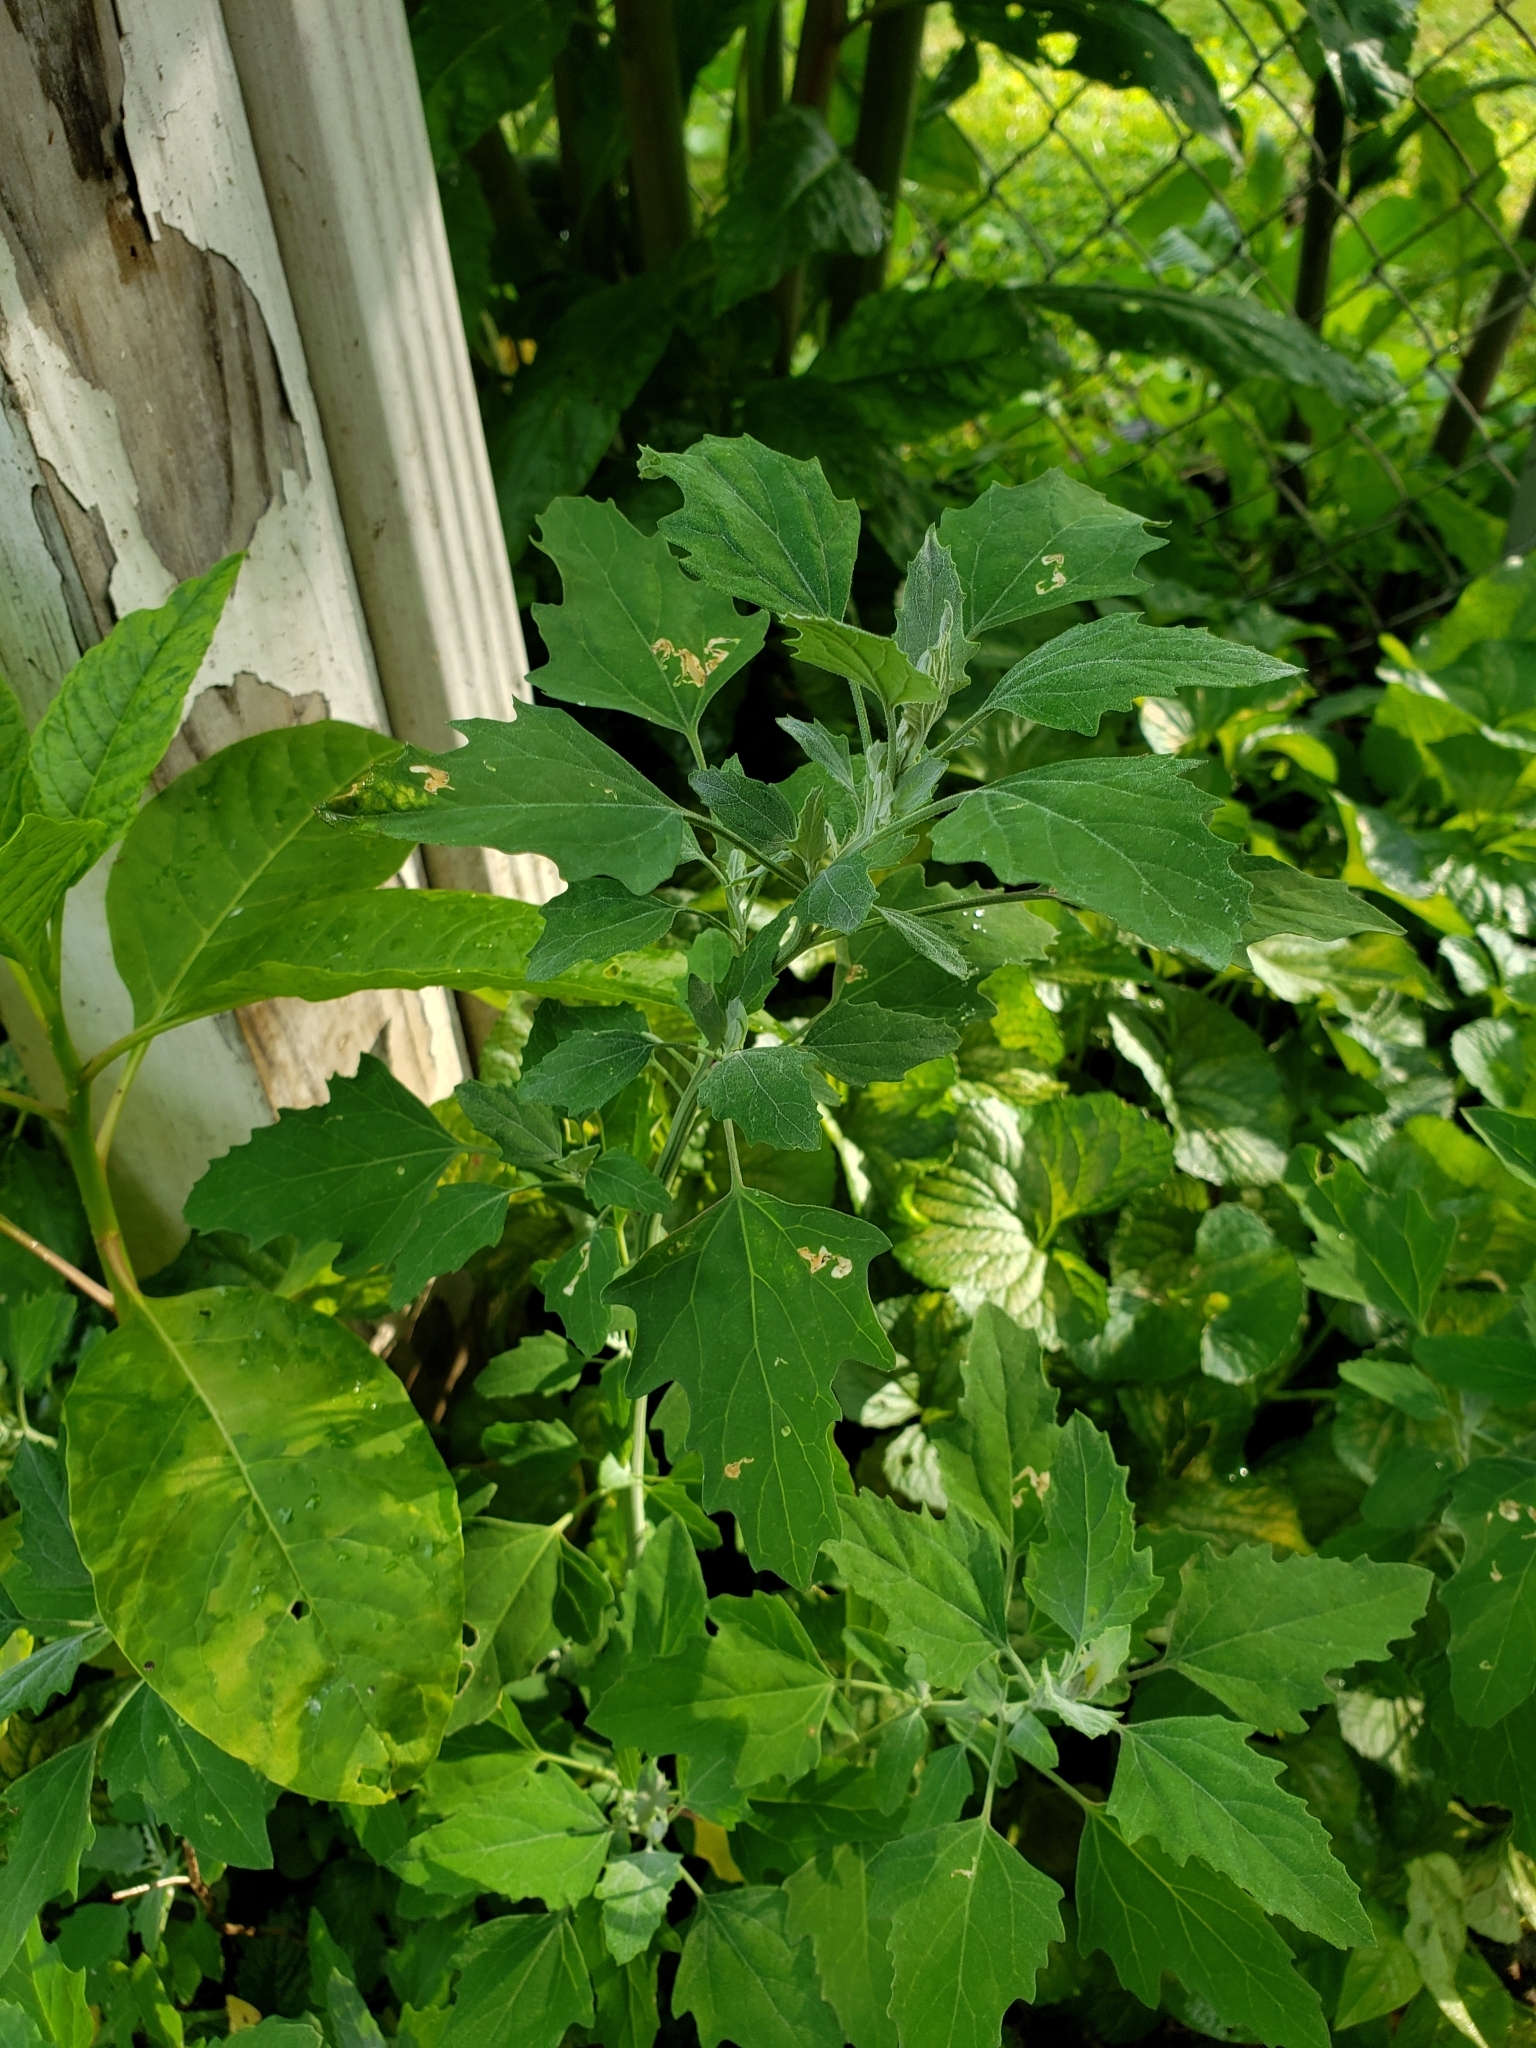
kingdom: Plantae
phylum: Tracheophyta
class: Magnoliopsida
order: Caryophyllales
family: Amaranthaceae
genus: Chenopodium
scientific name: Chenopodium album
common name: Fat-hen
